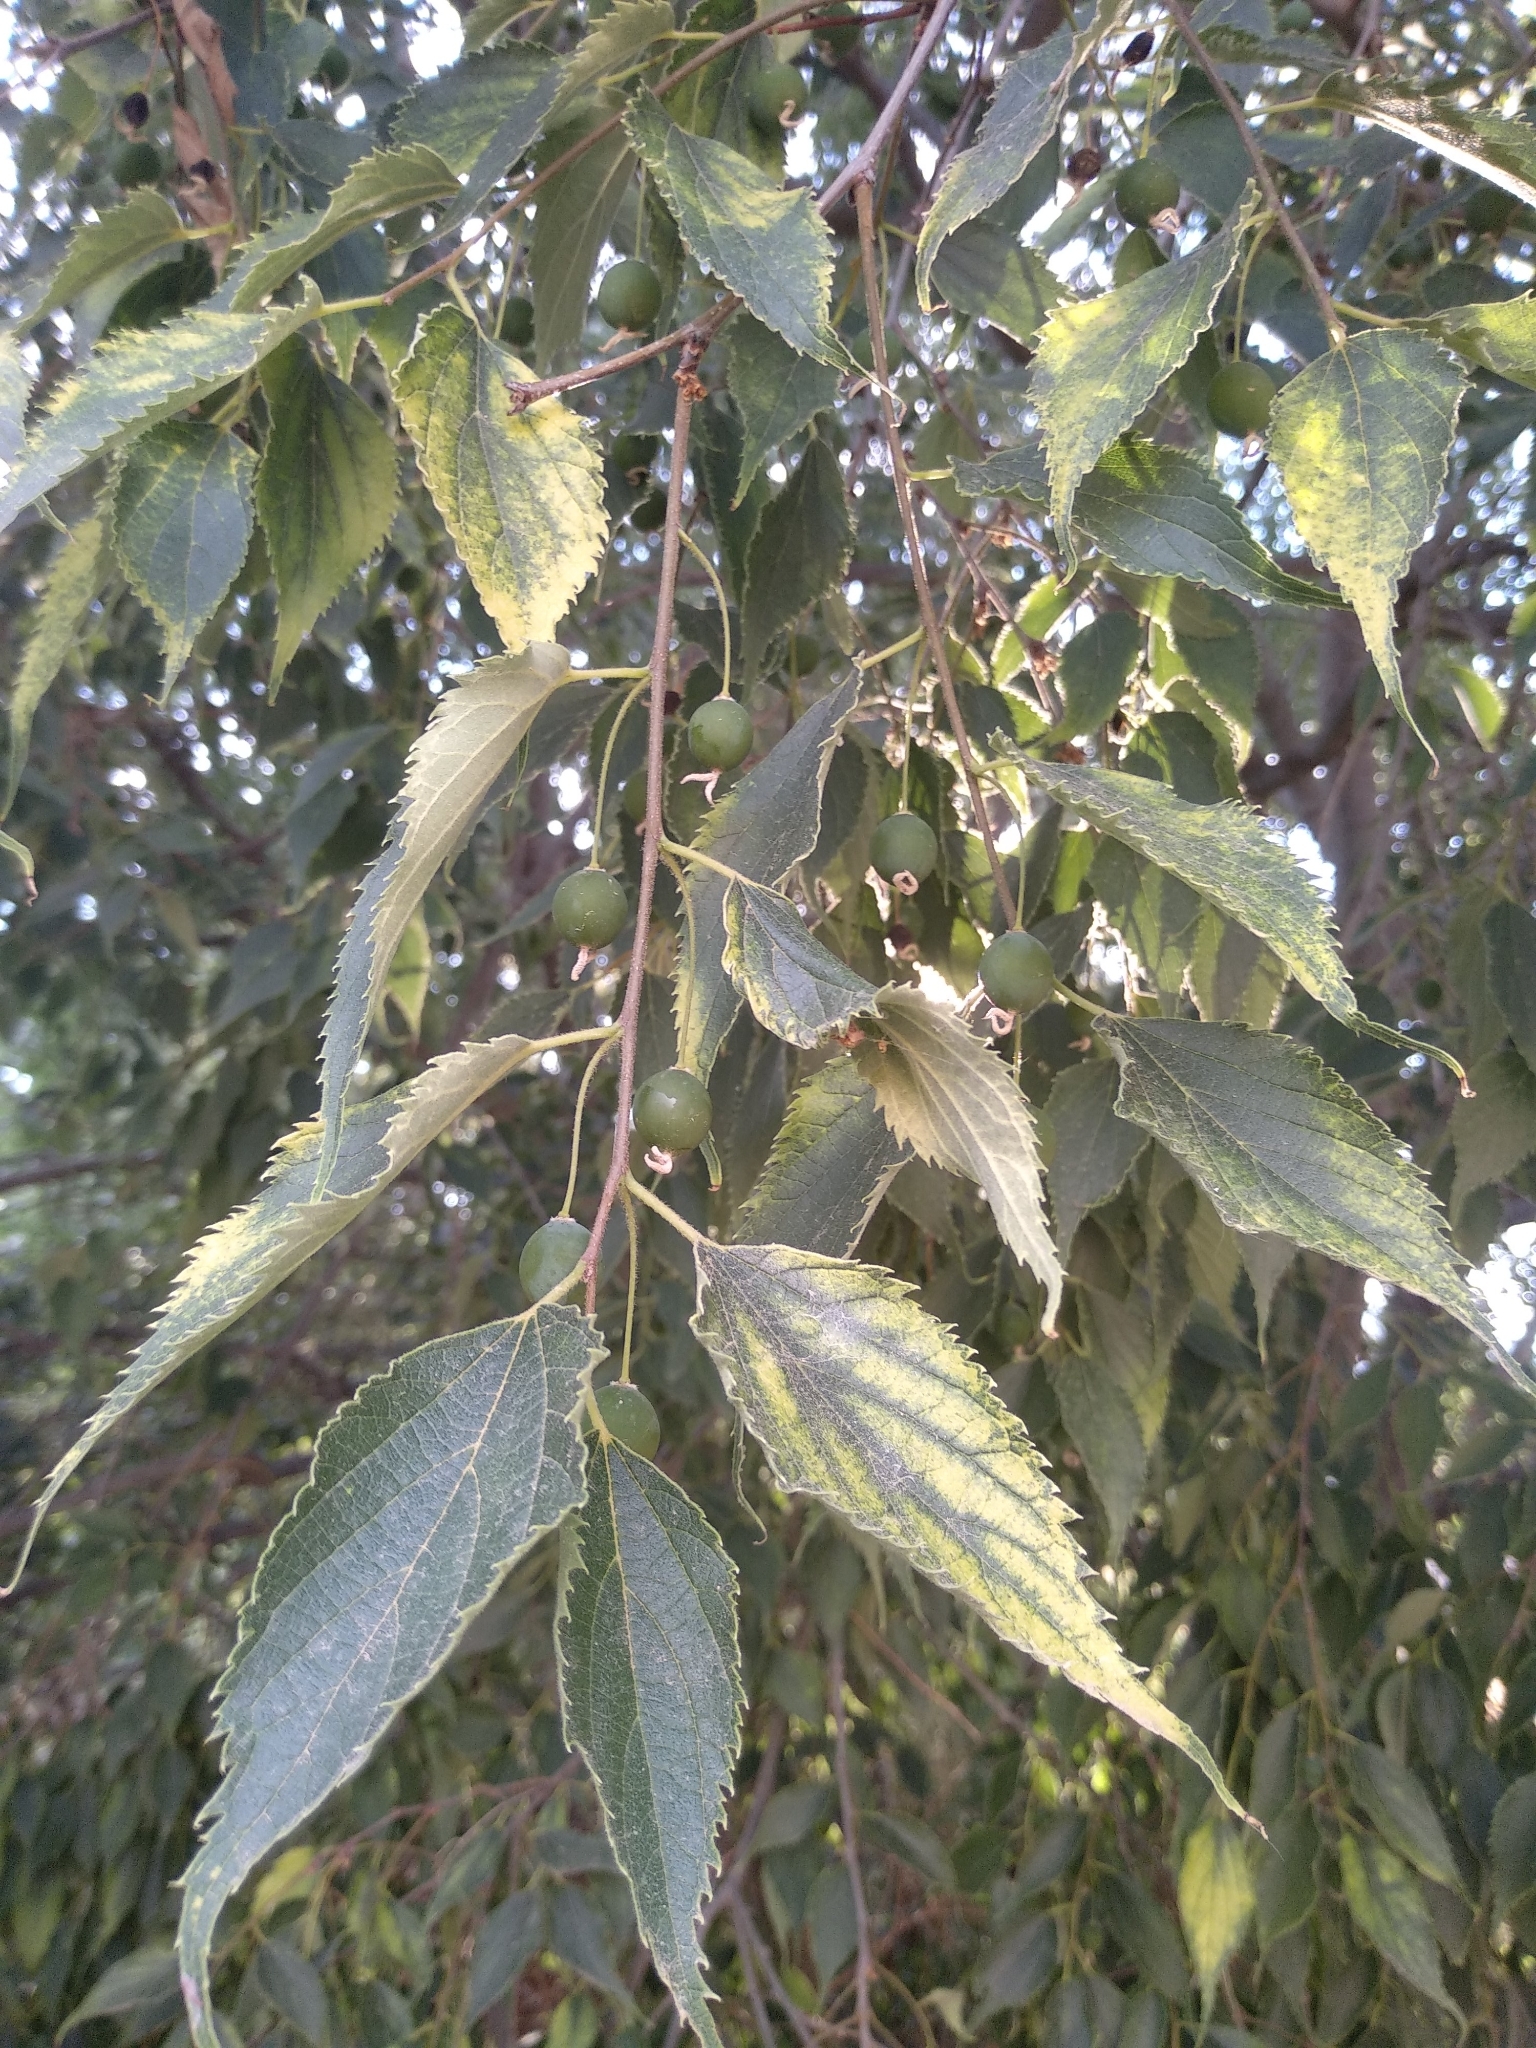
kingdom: Plantae
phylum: Tracheophyta
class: Magnoliopsida
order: Rosales
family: Cannabaceae
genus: Celtis
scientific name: Celtis australis
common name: European hackberry
